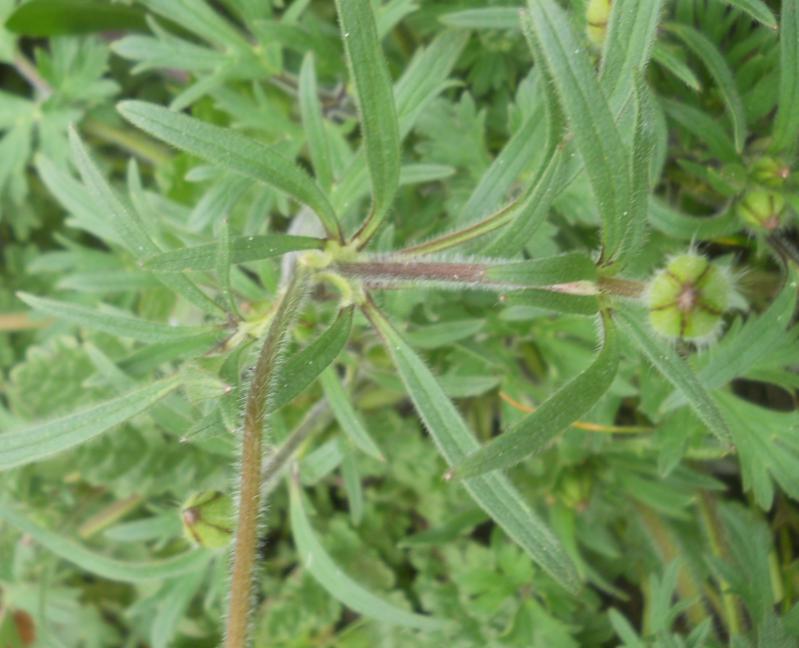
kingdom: Plantae
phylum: Tracheophyta
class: Magnoliopsida
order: Ranunculales
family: Ranunculaceae
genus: Ranunculus
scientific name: Ranunculus bulbosus
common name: Bulbous buttercup
